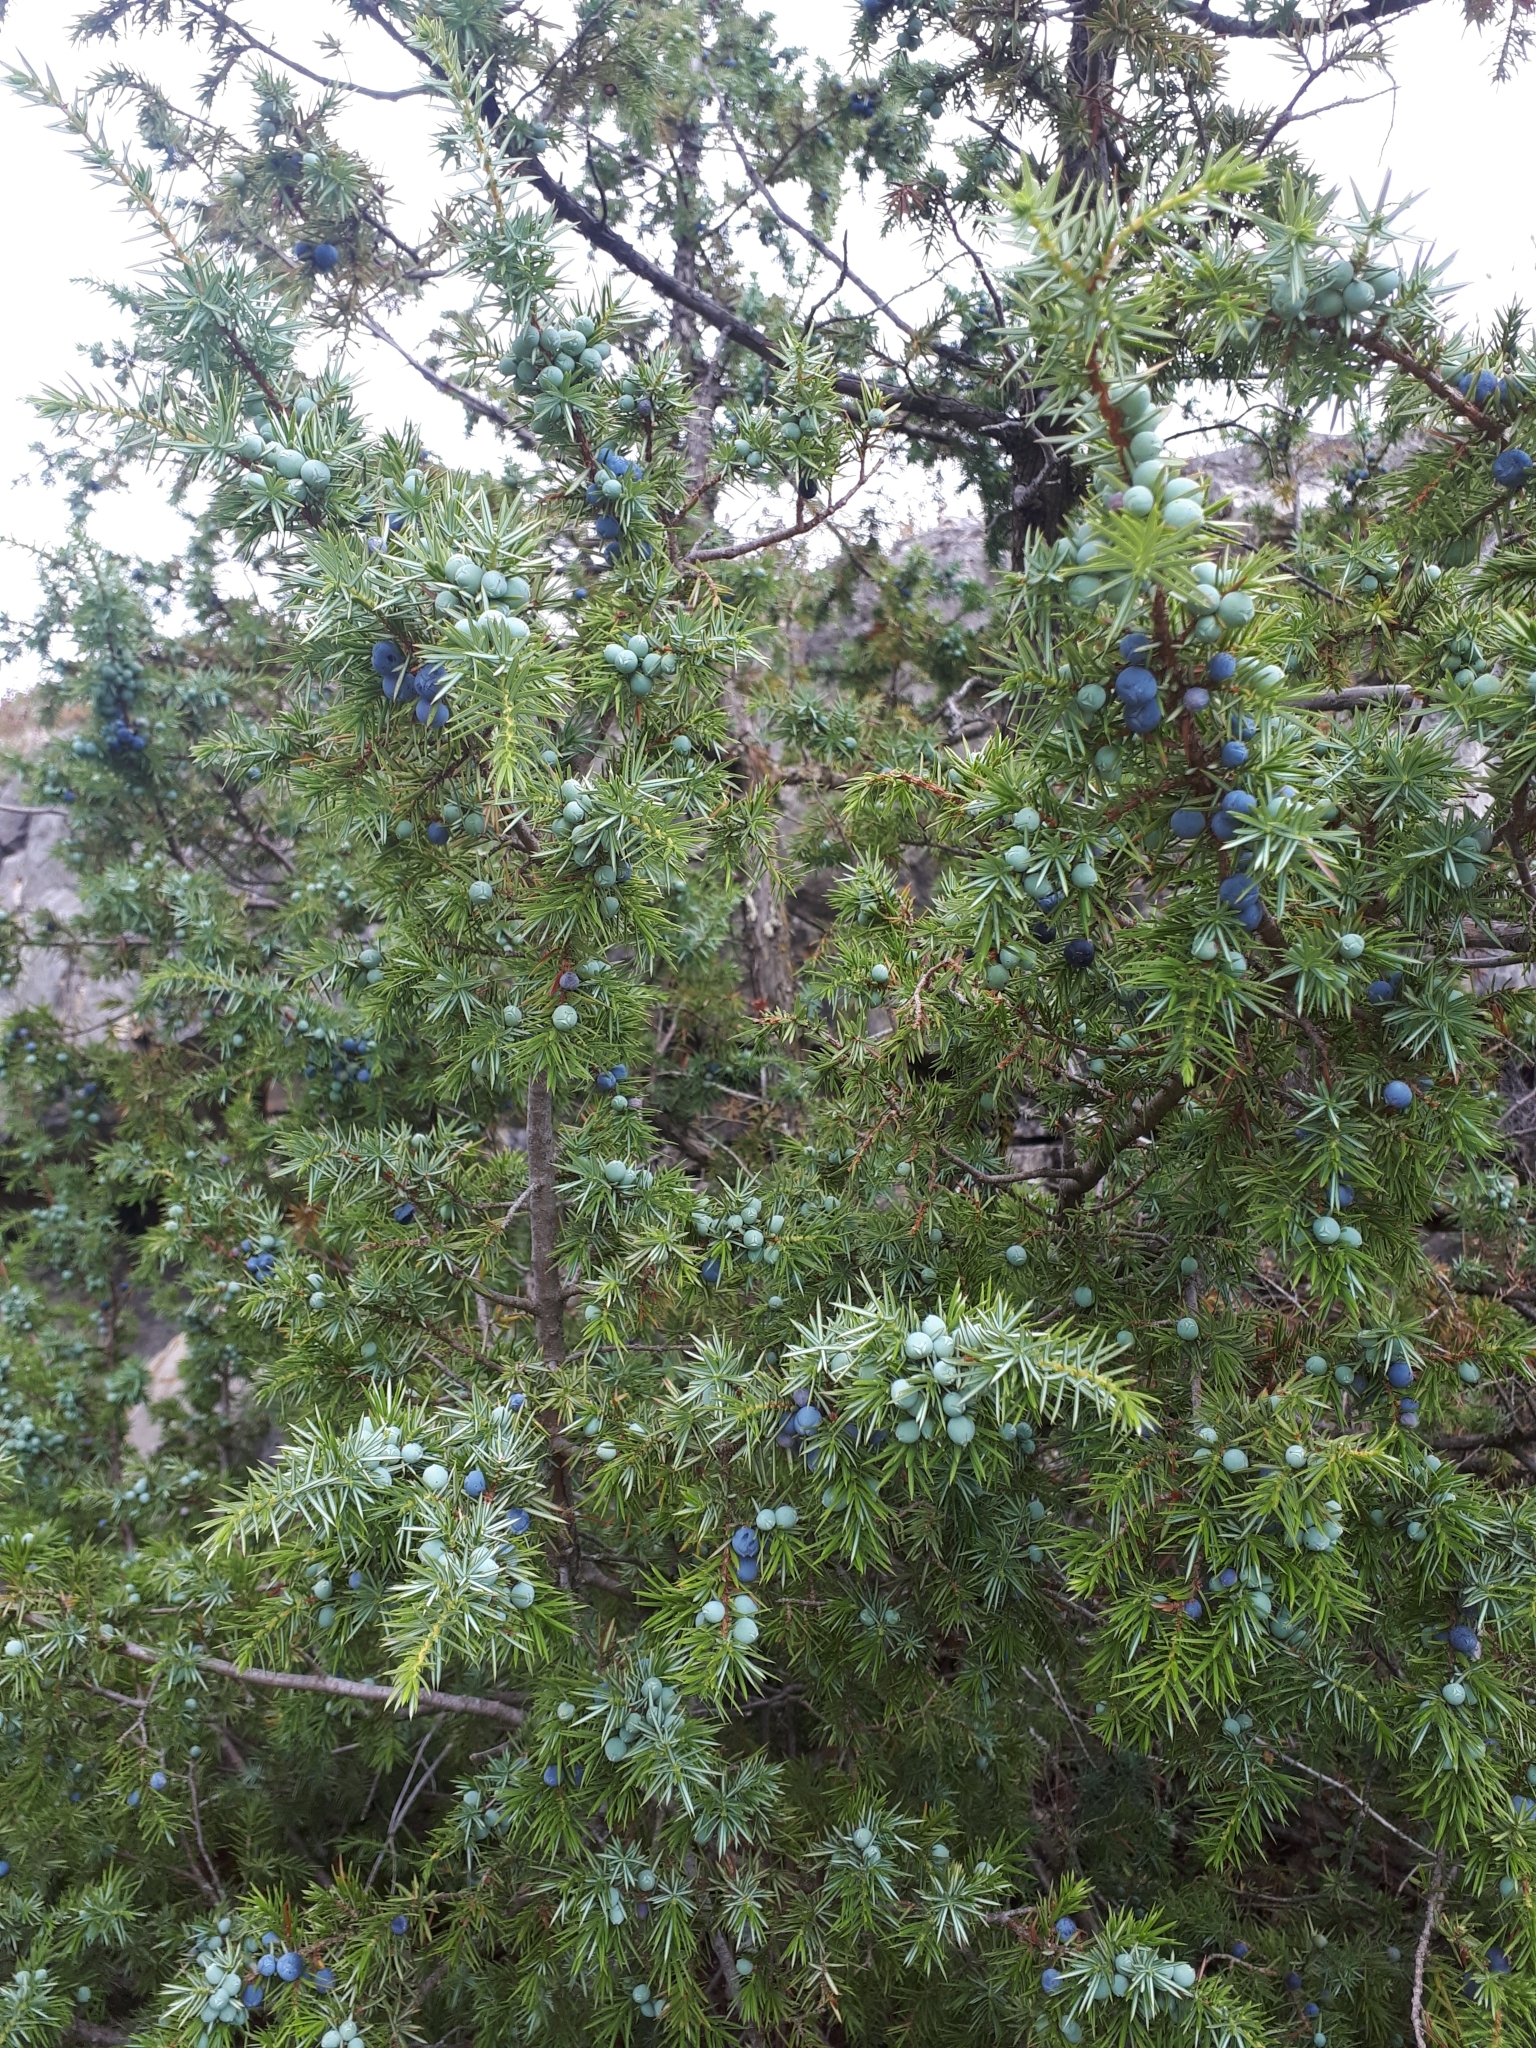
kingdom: Plantae
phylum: Tracheophyta
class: Pinopsida
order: Pinales
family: Cupressaceae
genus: Juniperus
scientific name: Juniperus communis
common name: Common juniper
